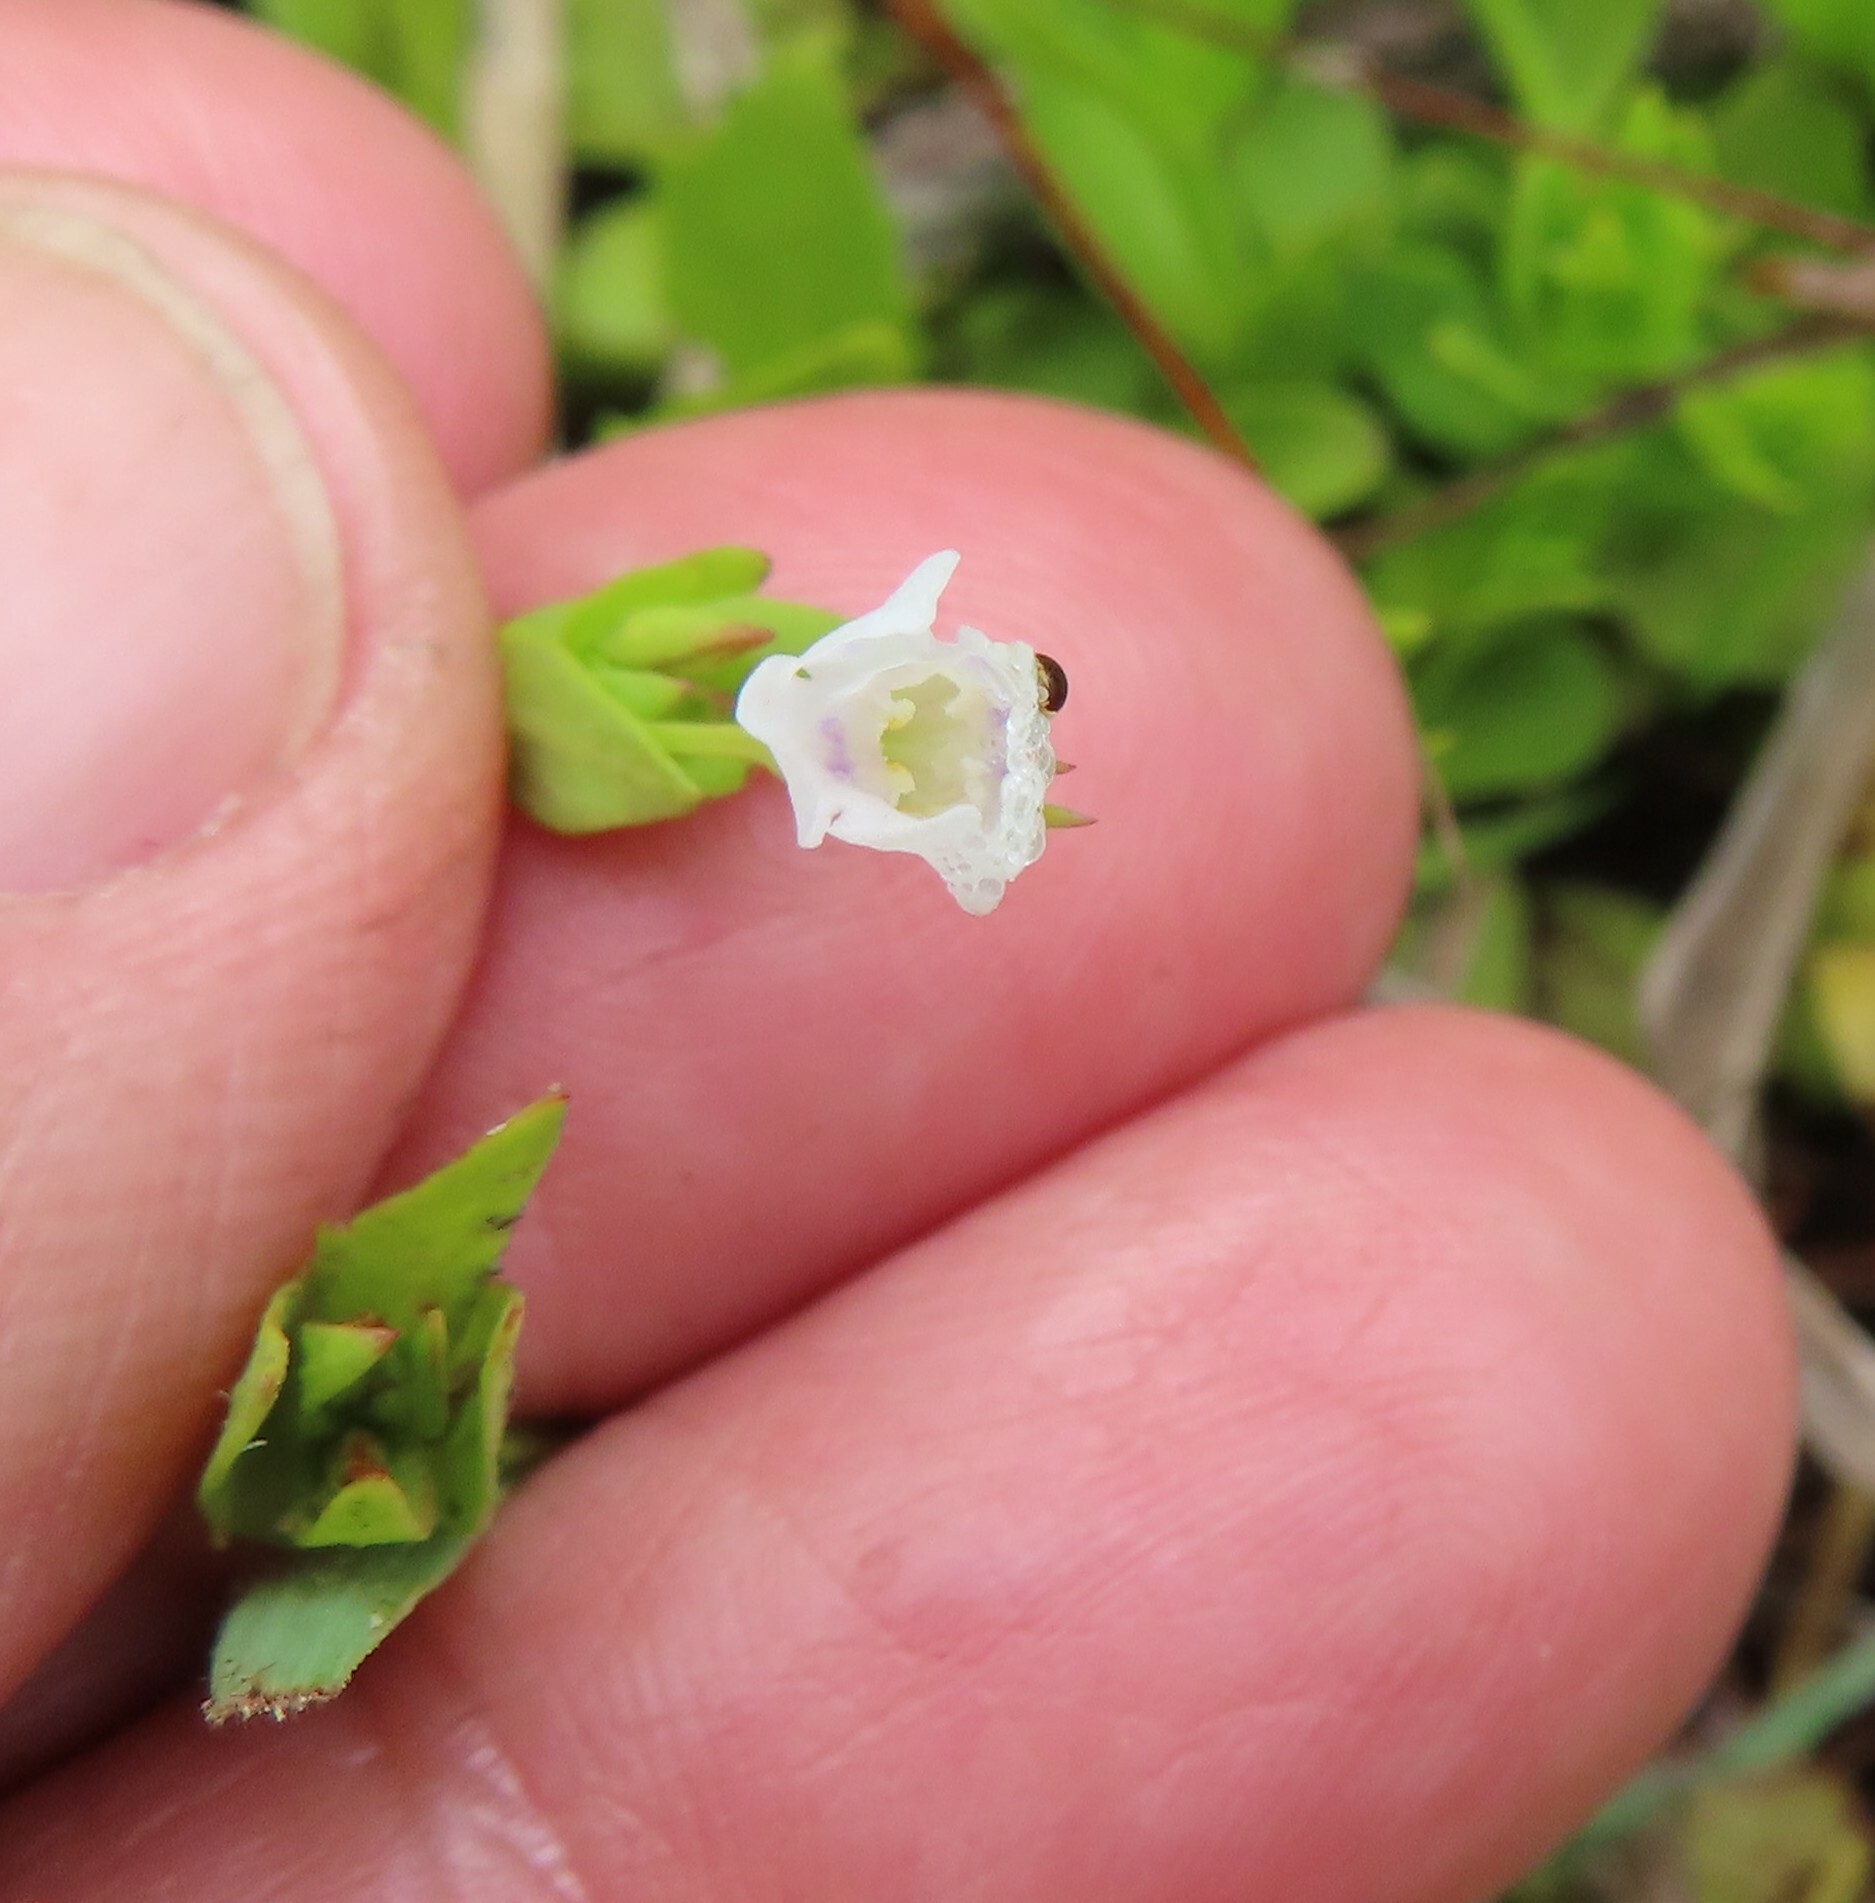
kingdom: Plantae
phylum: Tracheophyta
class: Magnoliopsida
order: Lamiales
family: Linderniaceae
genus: Lindernia
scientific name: Lindernia parviflora
